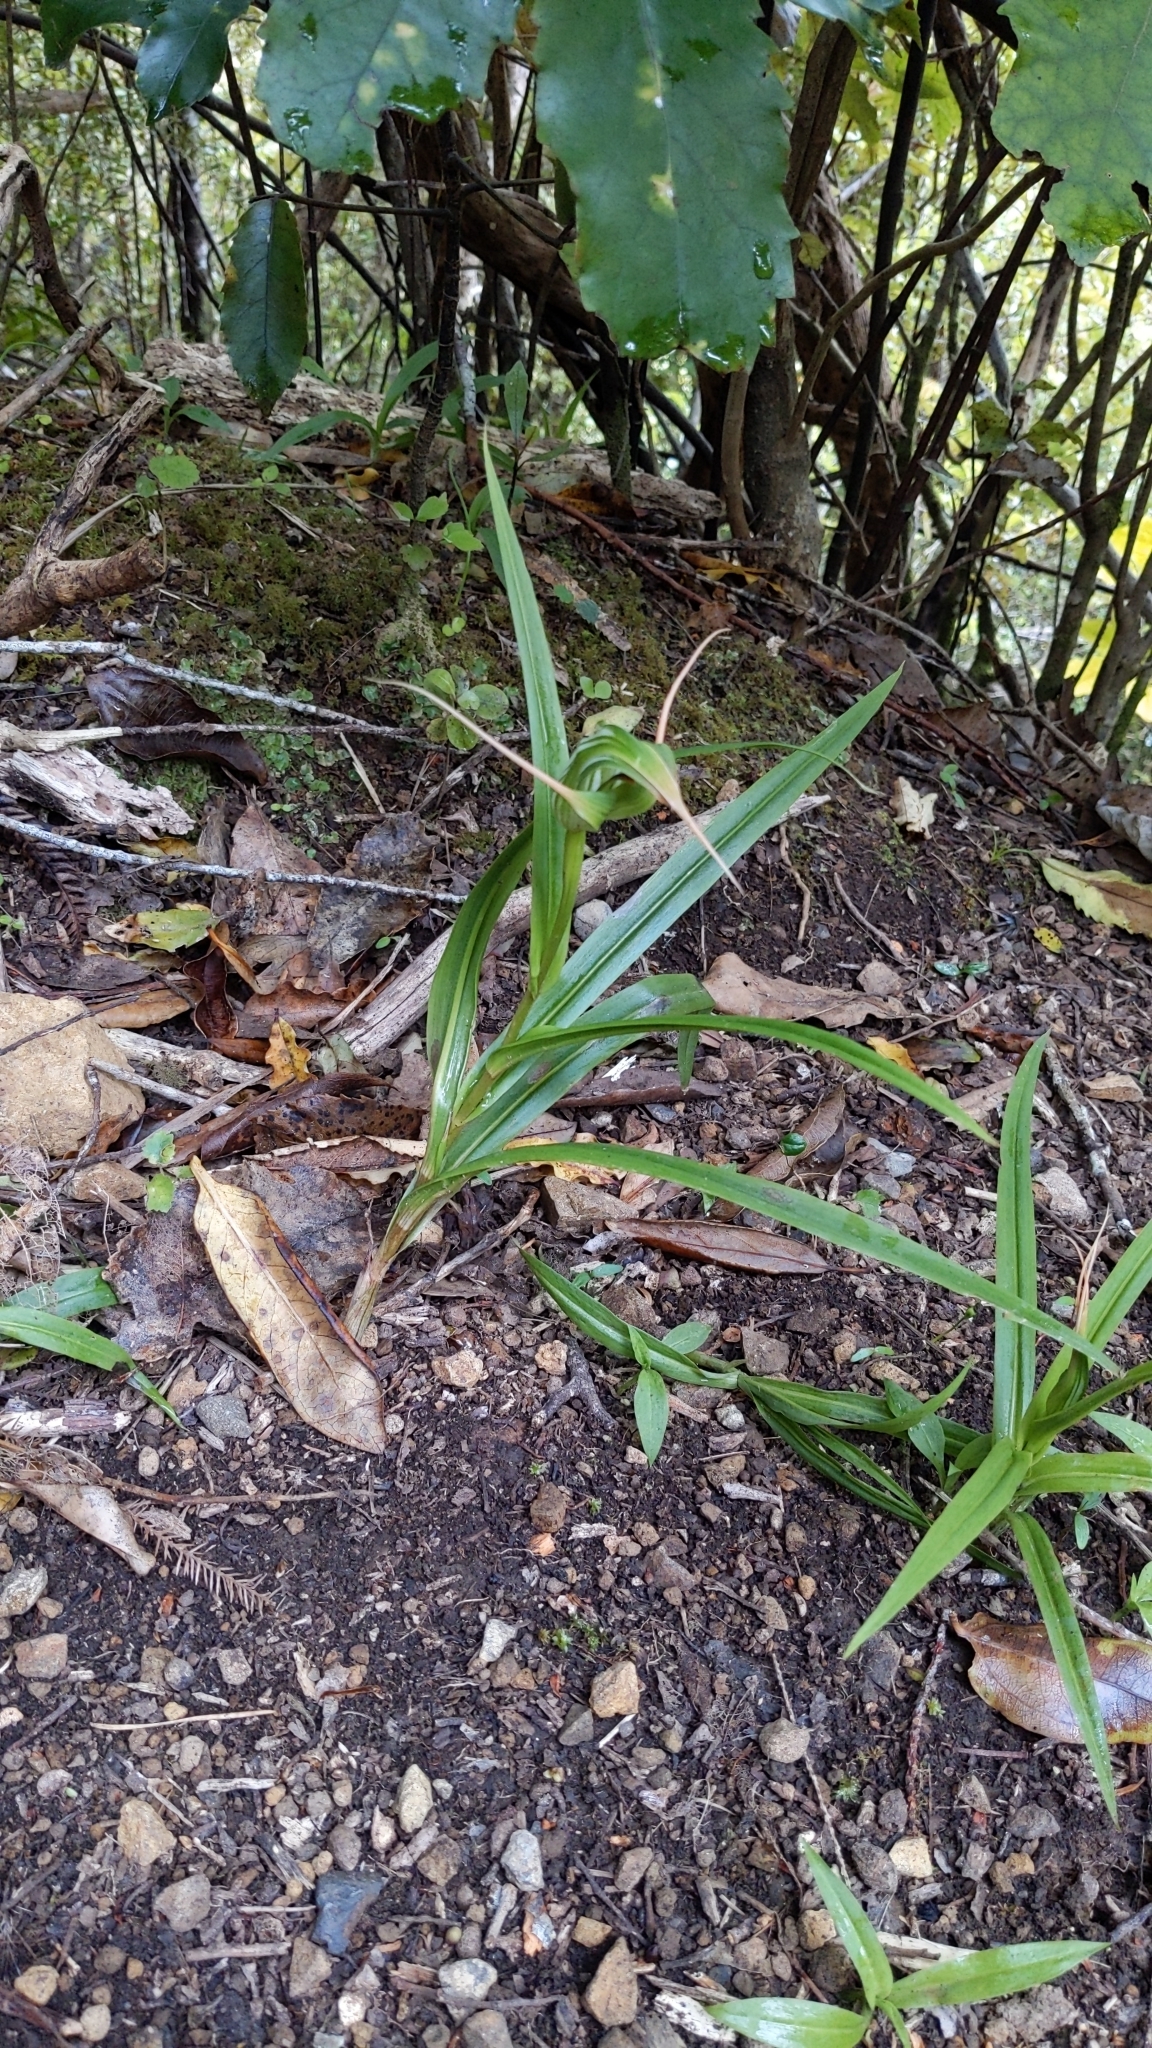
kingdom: Plantae
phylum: Tracheophyta
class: Liliopsida
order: Asparagales
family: Orchidaceae
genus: Pterostylis
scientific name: Pterostylis banksii
